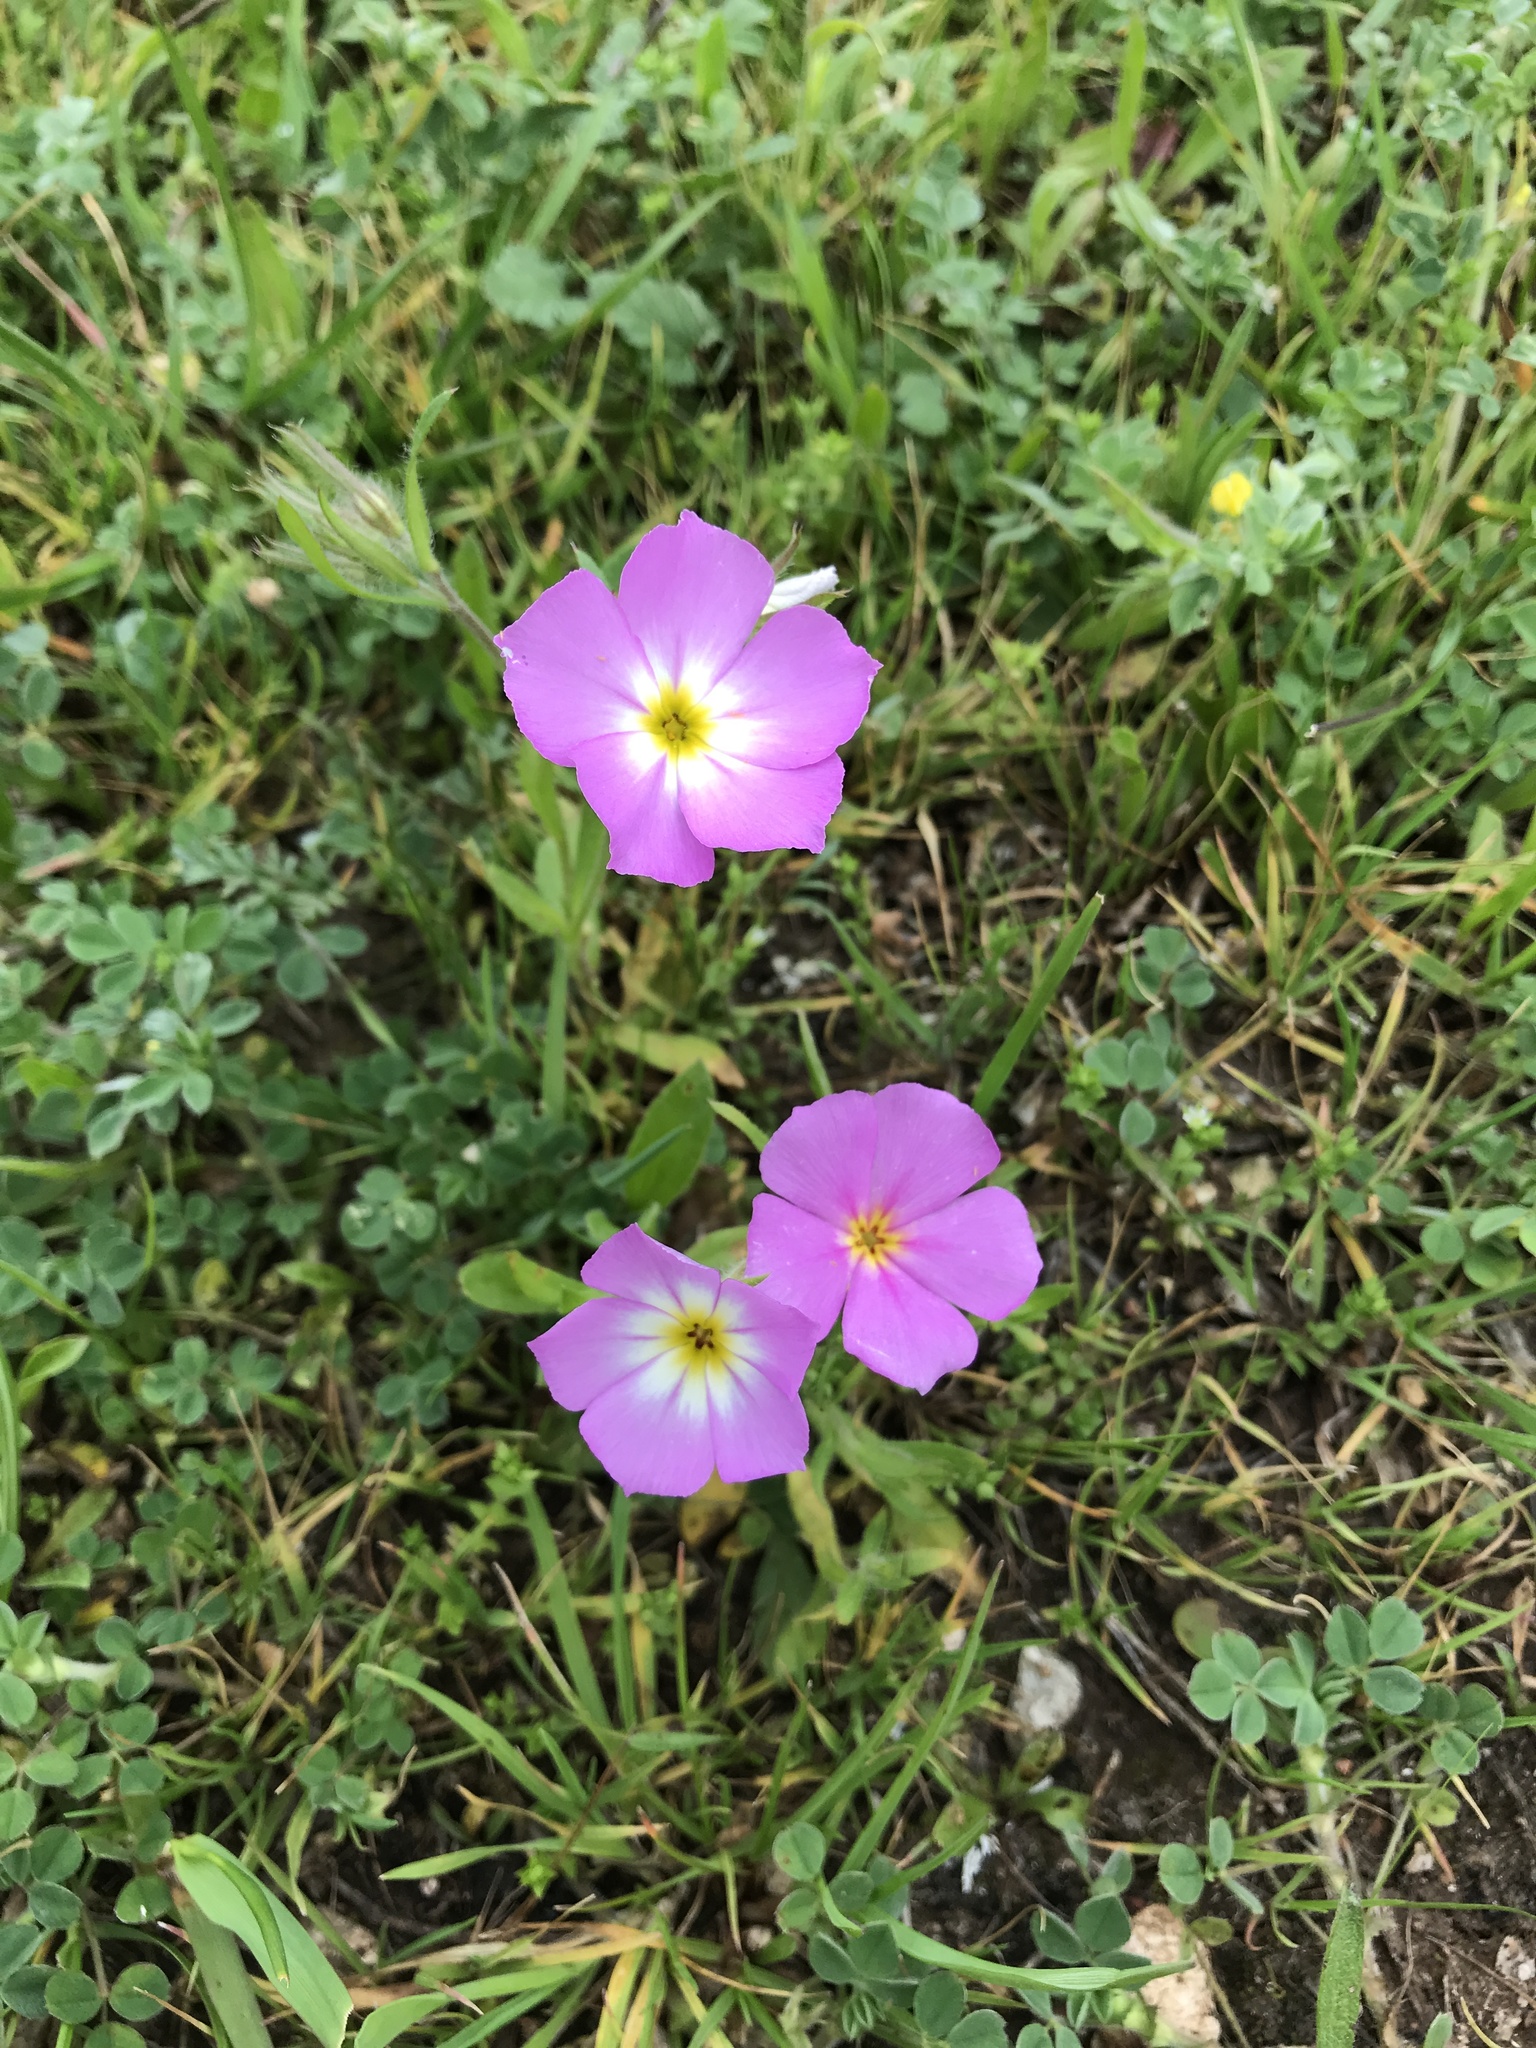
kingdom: Plantae
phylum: Tracheophyta
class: Magnoliopsida
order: Ericales
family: Polemoniaceae
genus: Phlox
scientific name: Phlox roemeriana
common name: Roemer's phlox
